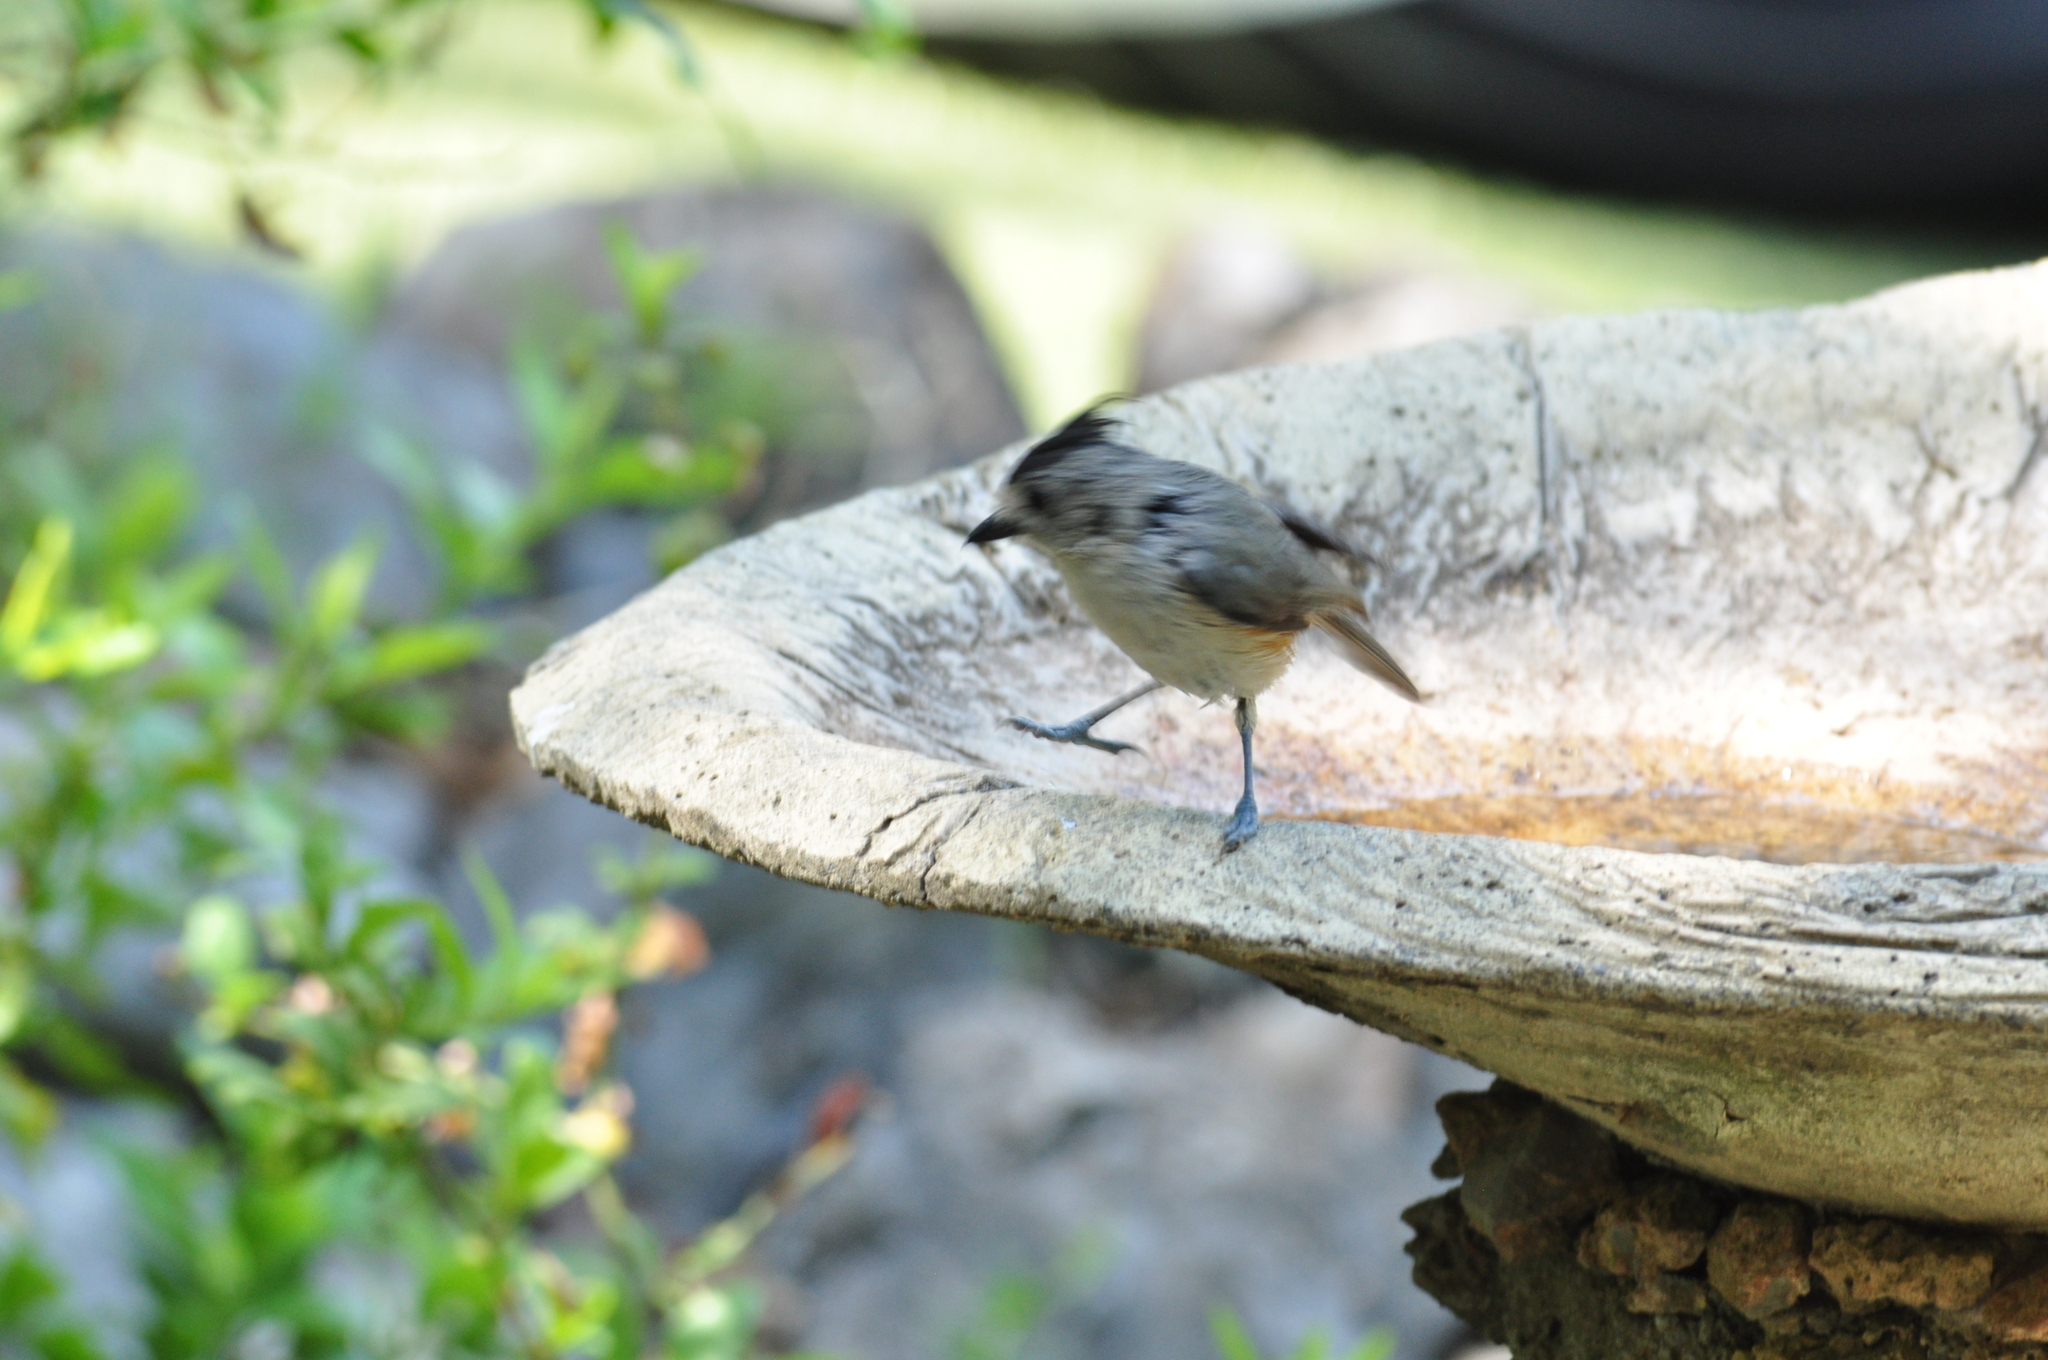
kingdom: Animalia
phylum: Chordata
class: Aves
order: Passeriformes
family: Paridae
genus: Baeolophus
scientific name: Baeolophus atricristatus
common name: Black-crested titmouse
